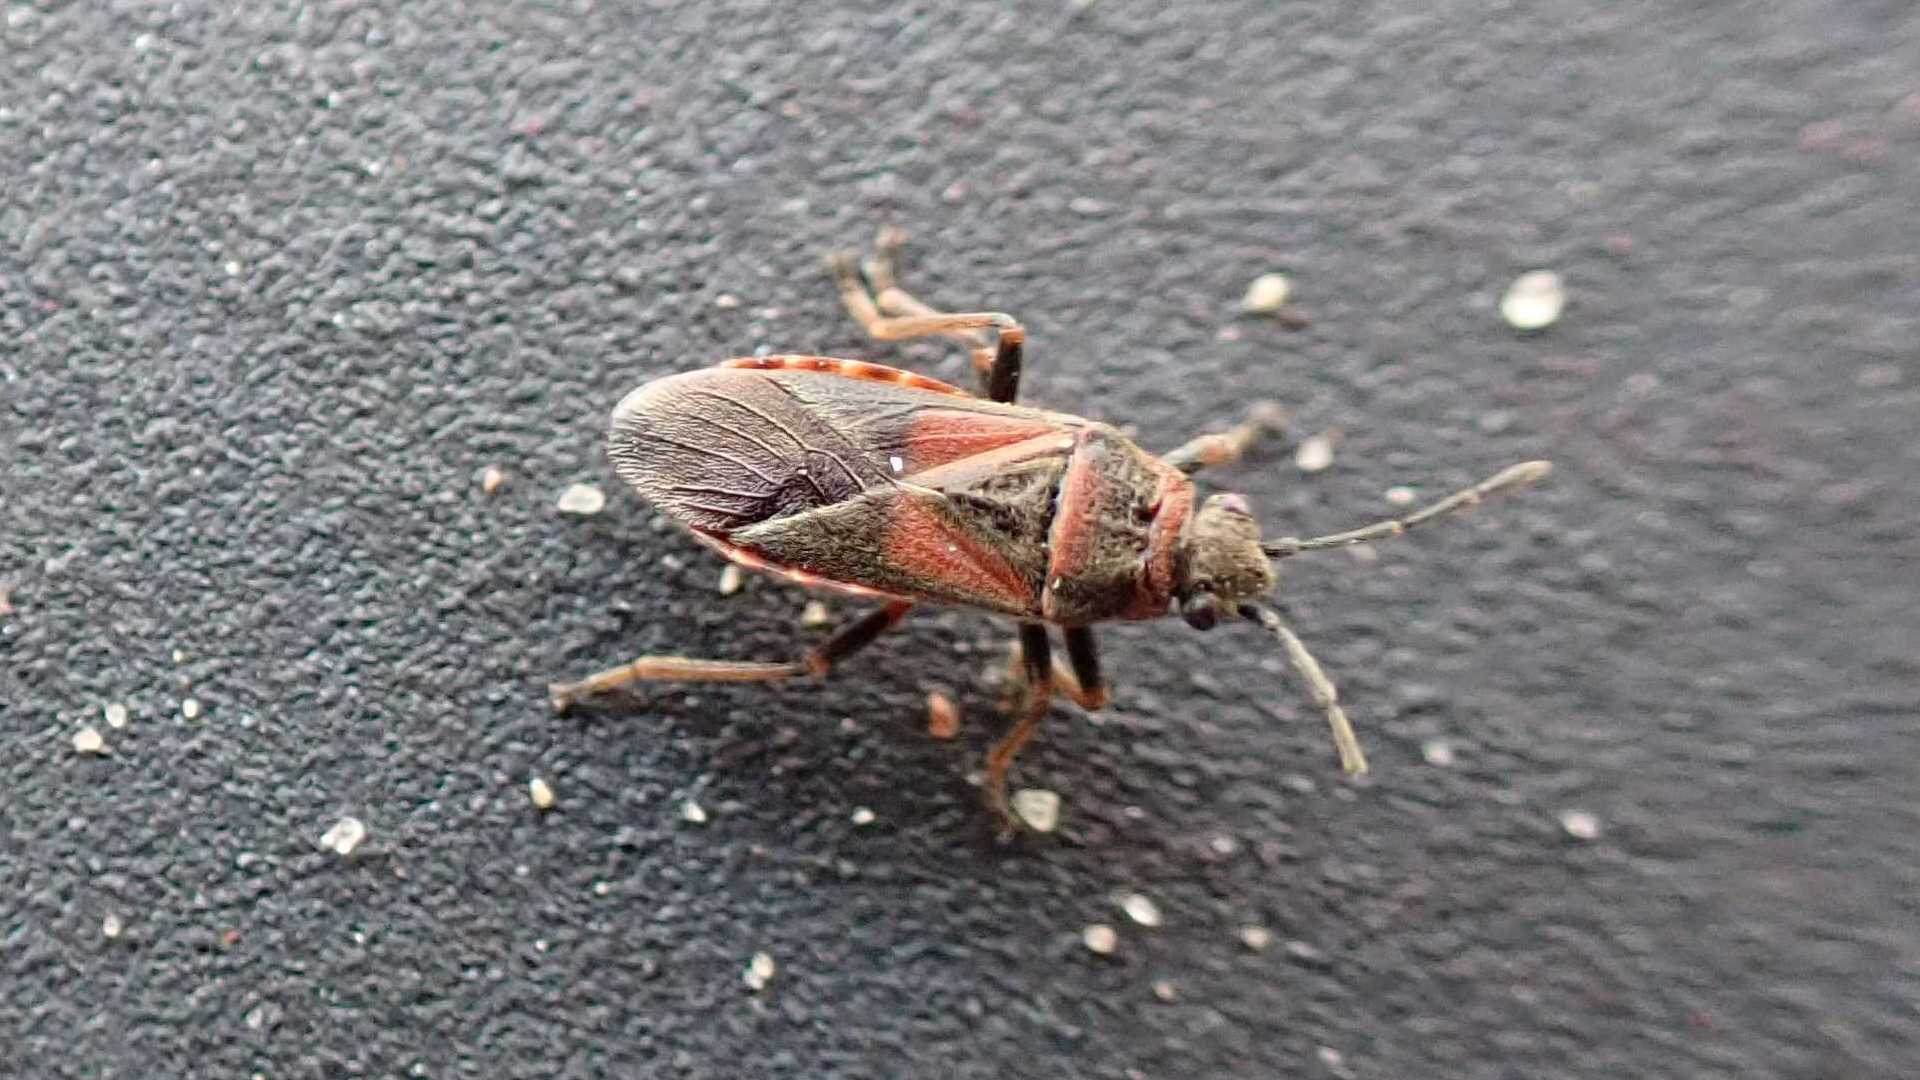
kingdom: Animalia
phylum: Arthropoda
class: Insecta
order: Hemiptera
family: Lygaeidae
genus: Arocatus
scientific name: Arocatus melanocephalus
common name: Lygaeid bug
